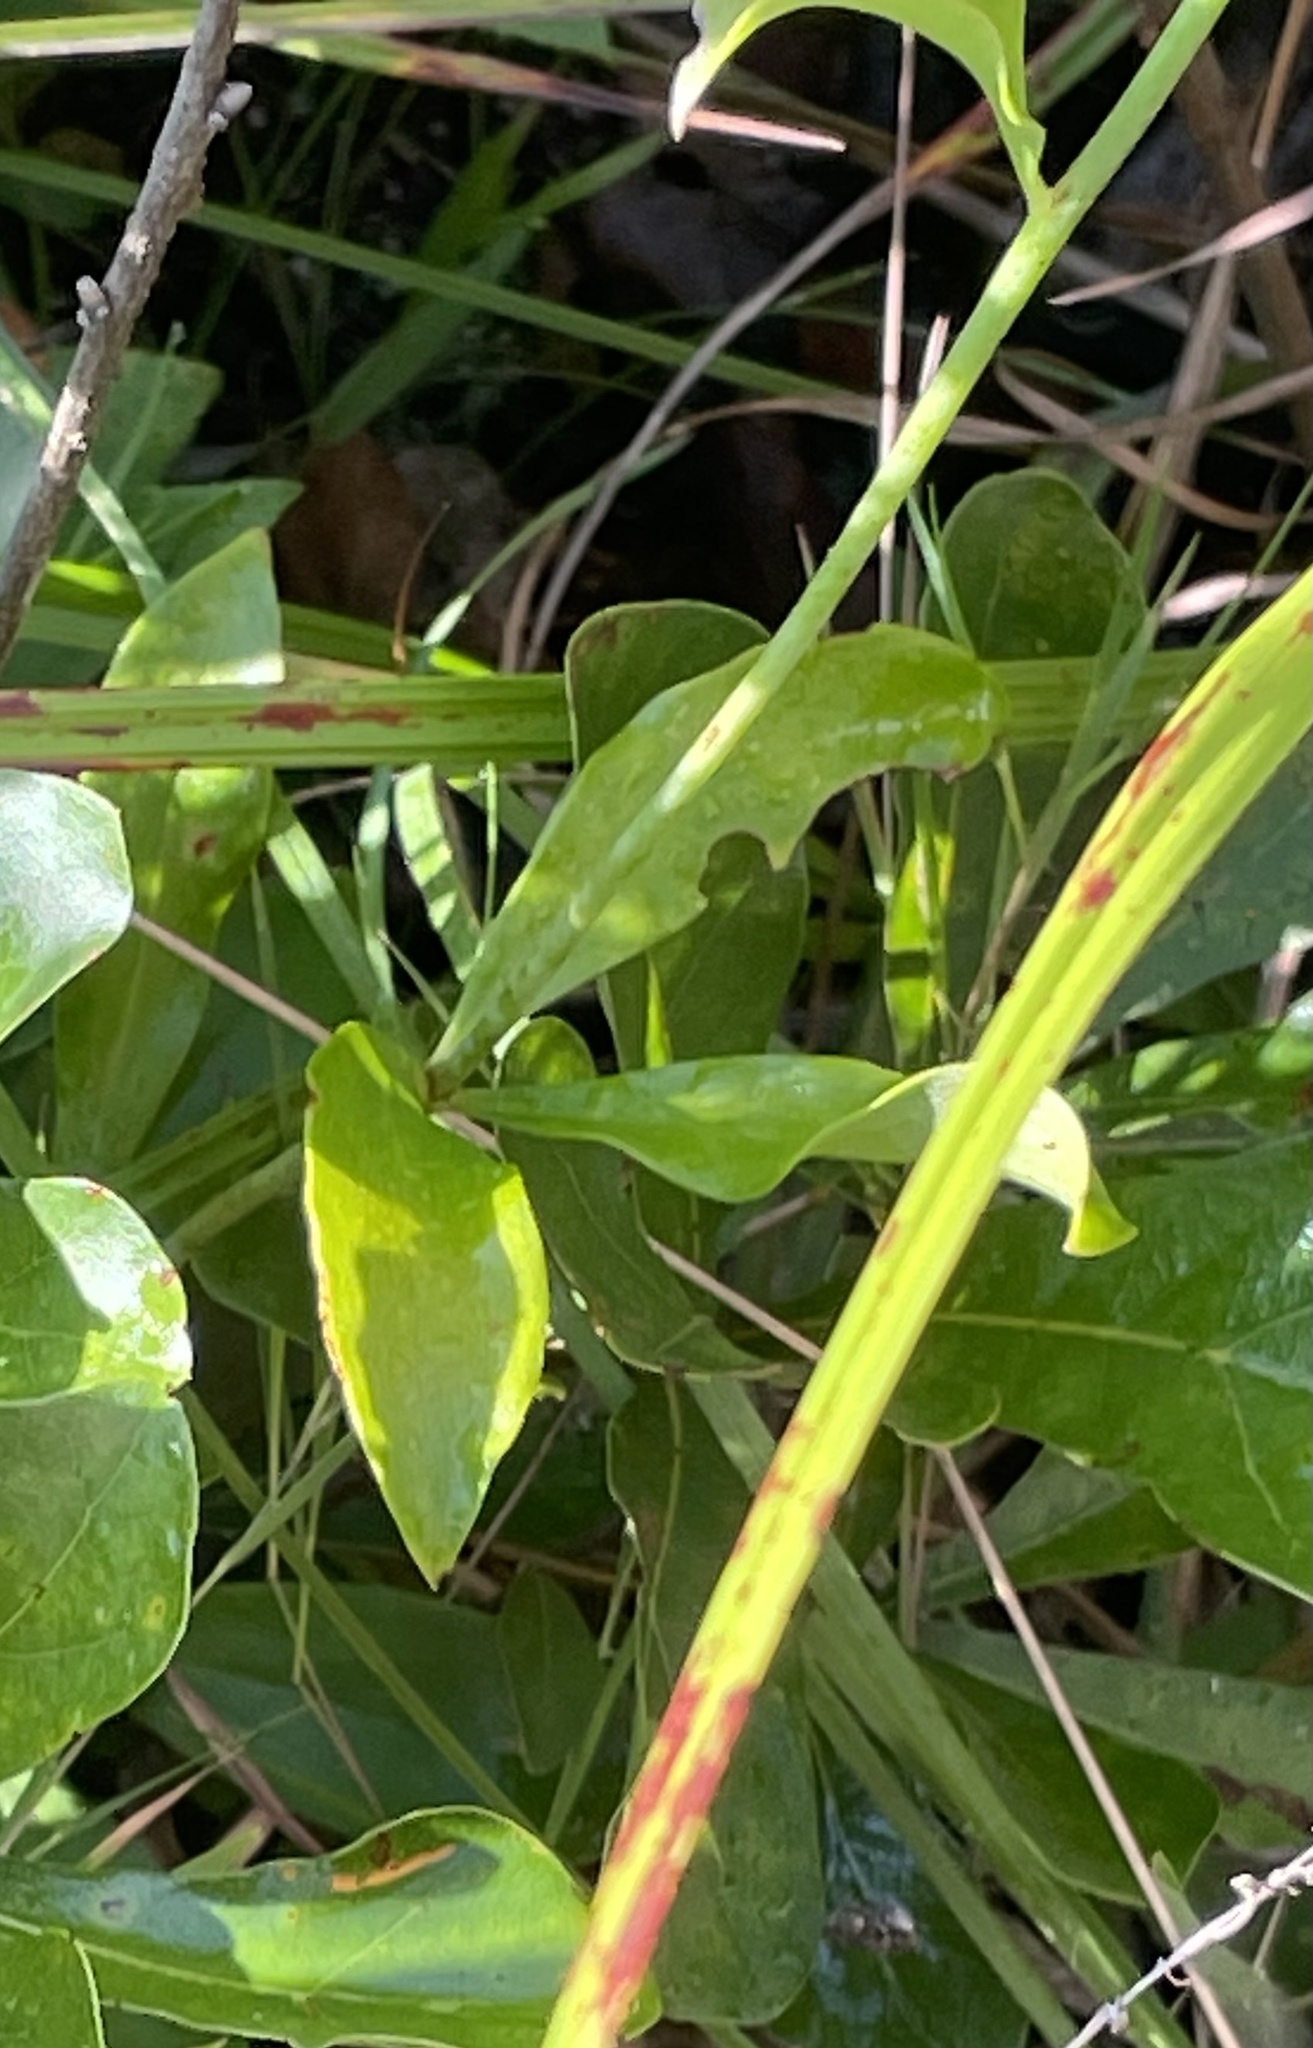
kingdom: Plantae
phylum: Tracheophyta
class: Liliopsida
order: Liliales
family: Liliaceae
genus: Lilium
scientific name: Lilium michauxii
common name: Carolina lily
